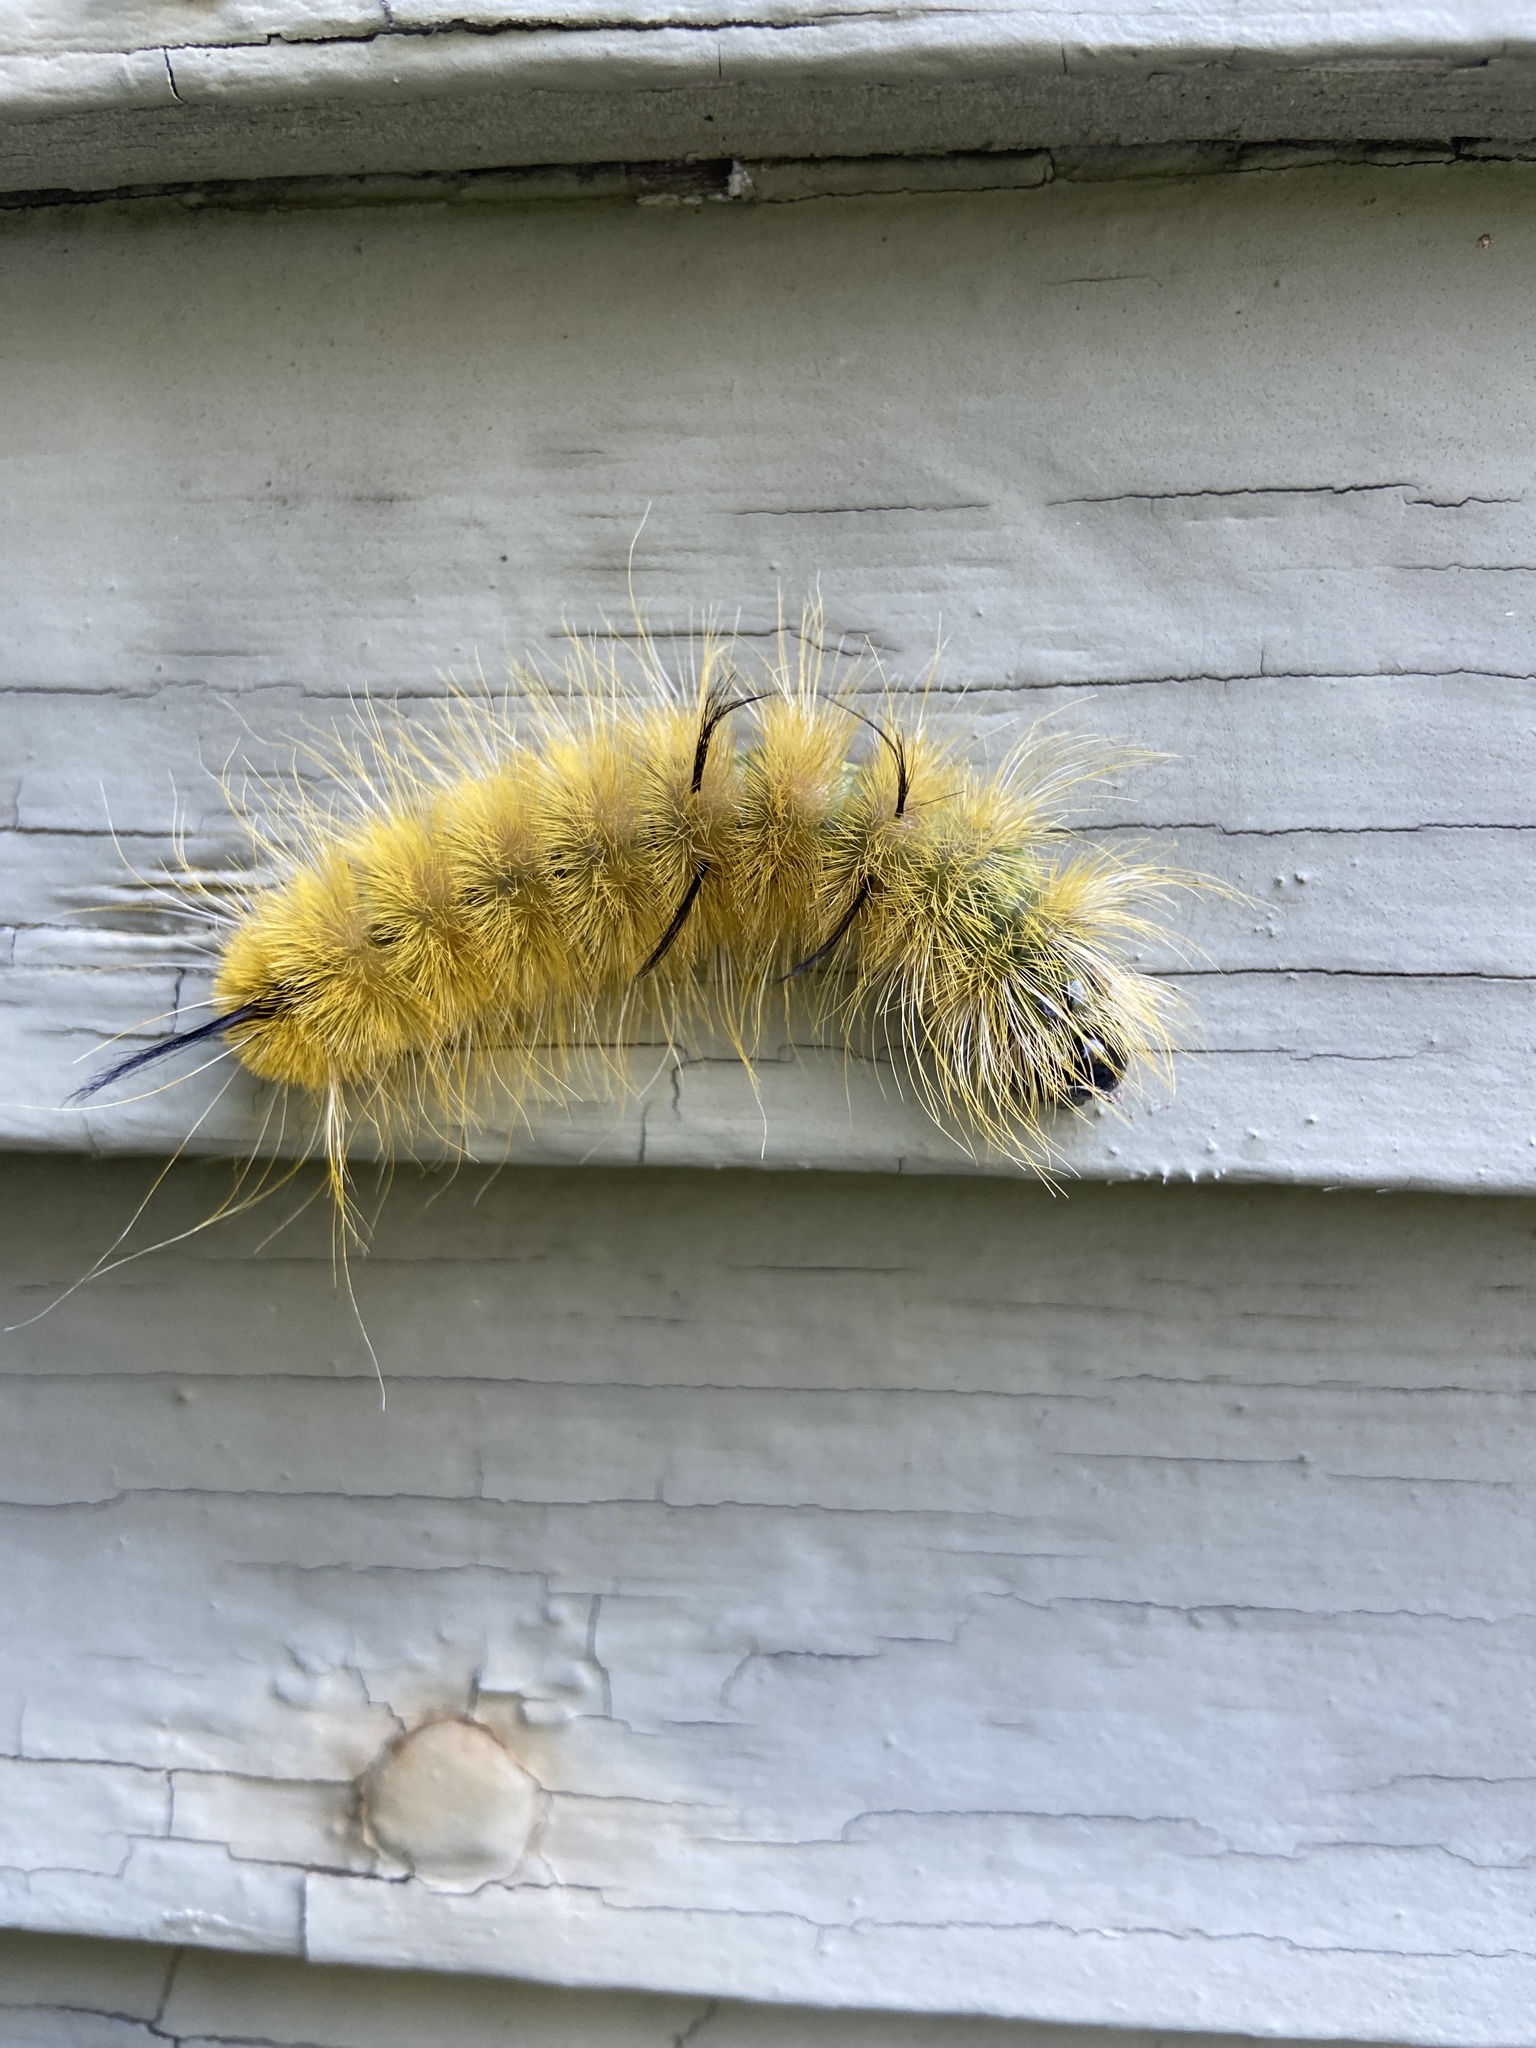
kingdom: Animalia
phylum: Arthropoda
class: Insecta
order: Lepidoptera
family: Noctuidae
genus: Acronicta
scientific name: Acronicta americana
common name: American dagger
